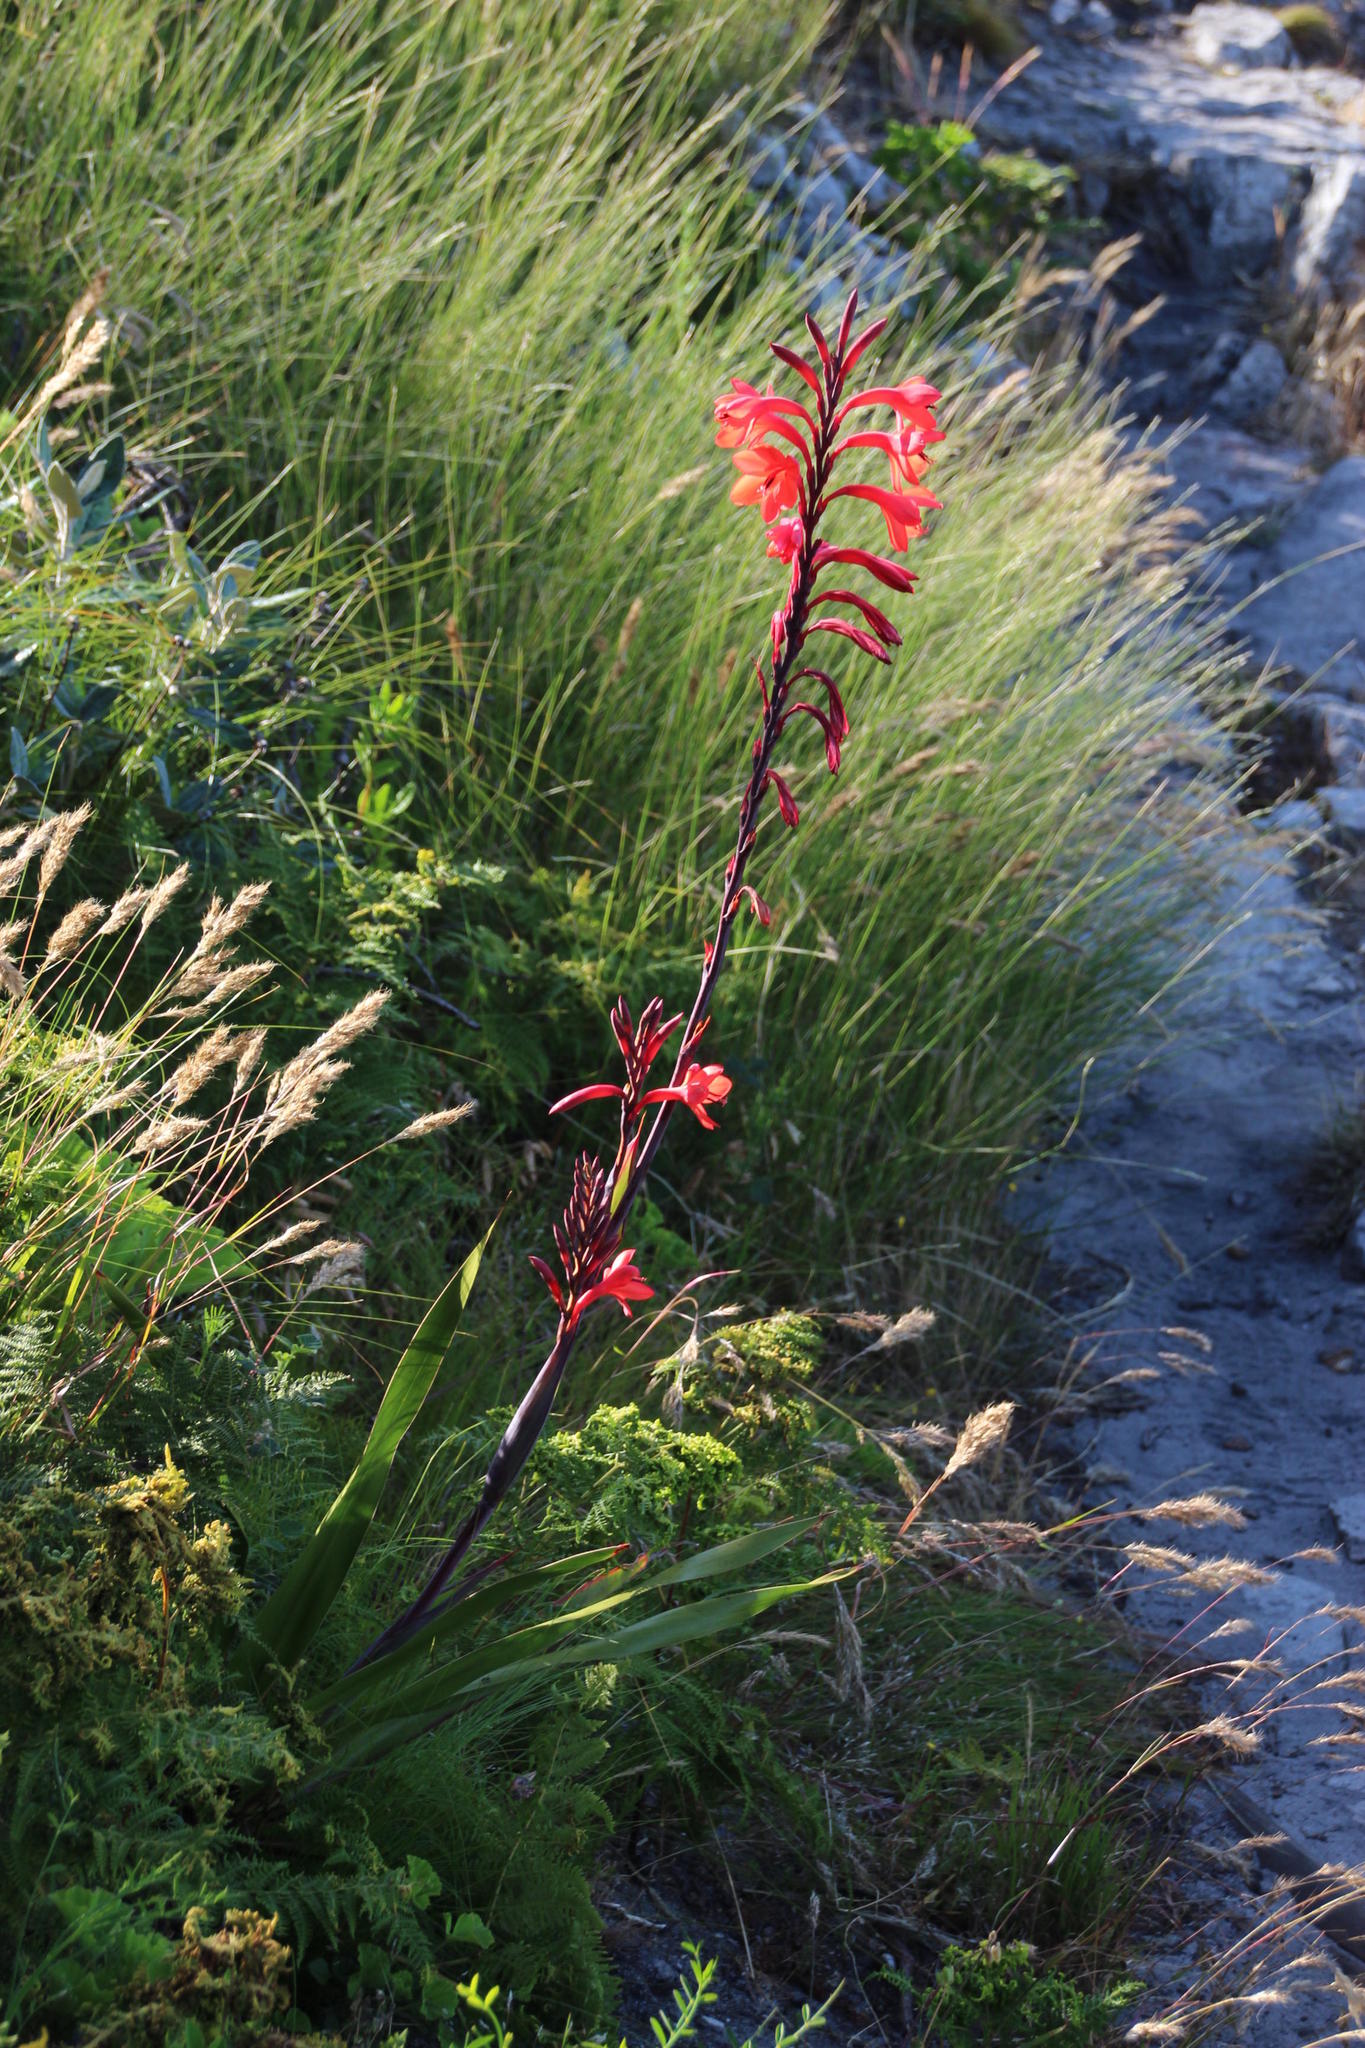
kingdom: Plantae
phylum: Tracheophyta
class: Liliopsida
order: Asparagales
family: Iridaceae
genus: Watsonia
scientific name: Watsonia tabularis
